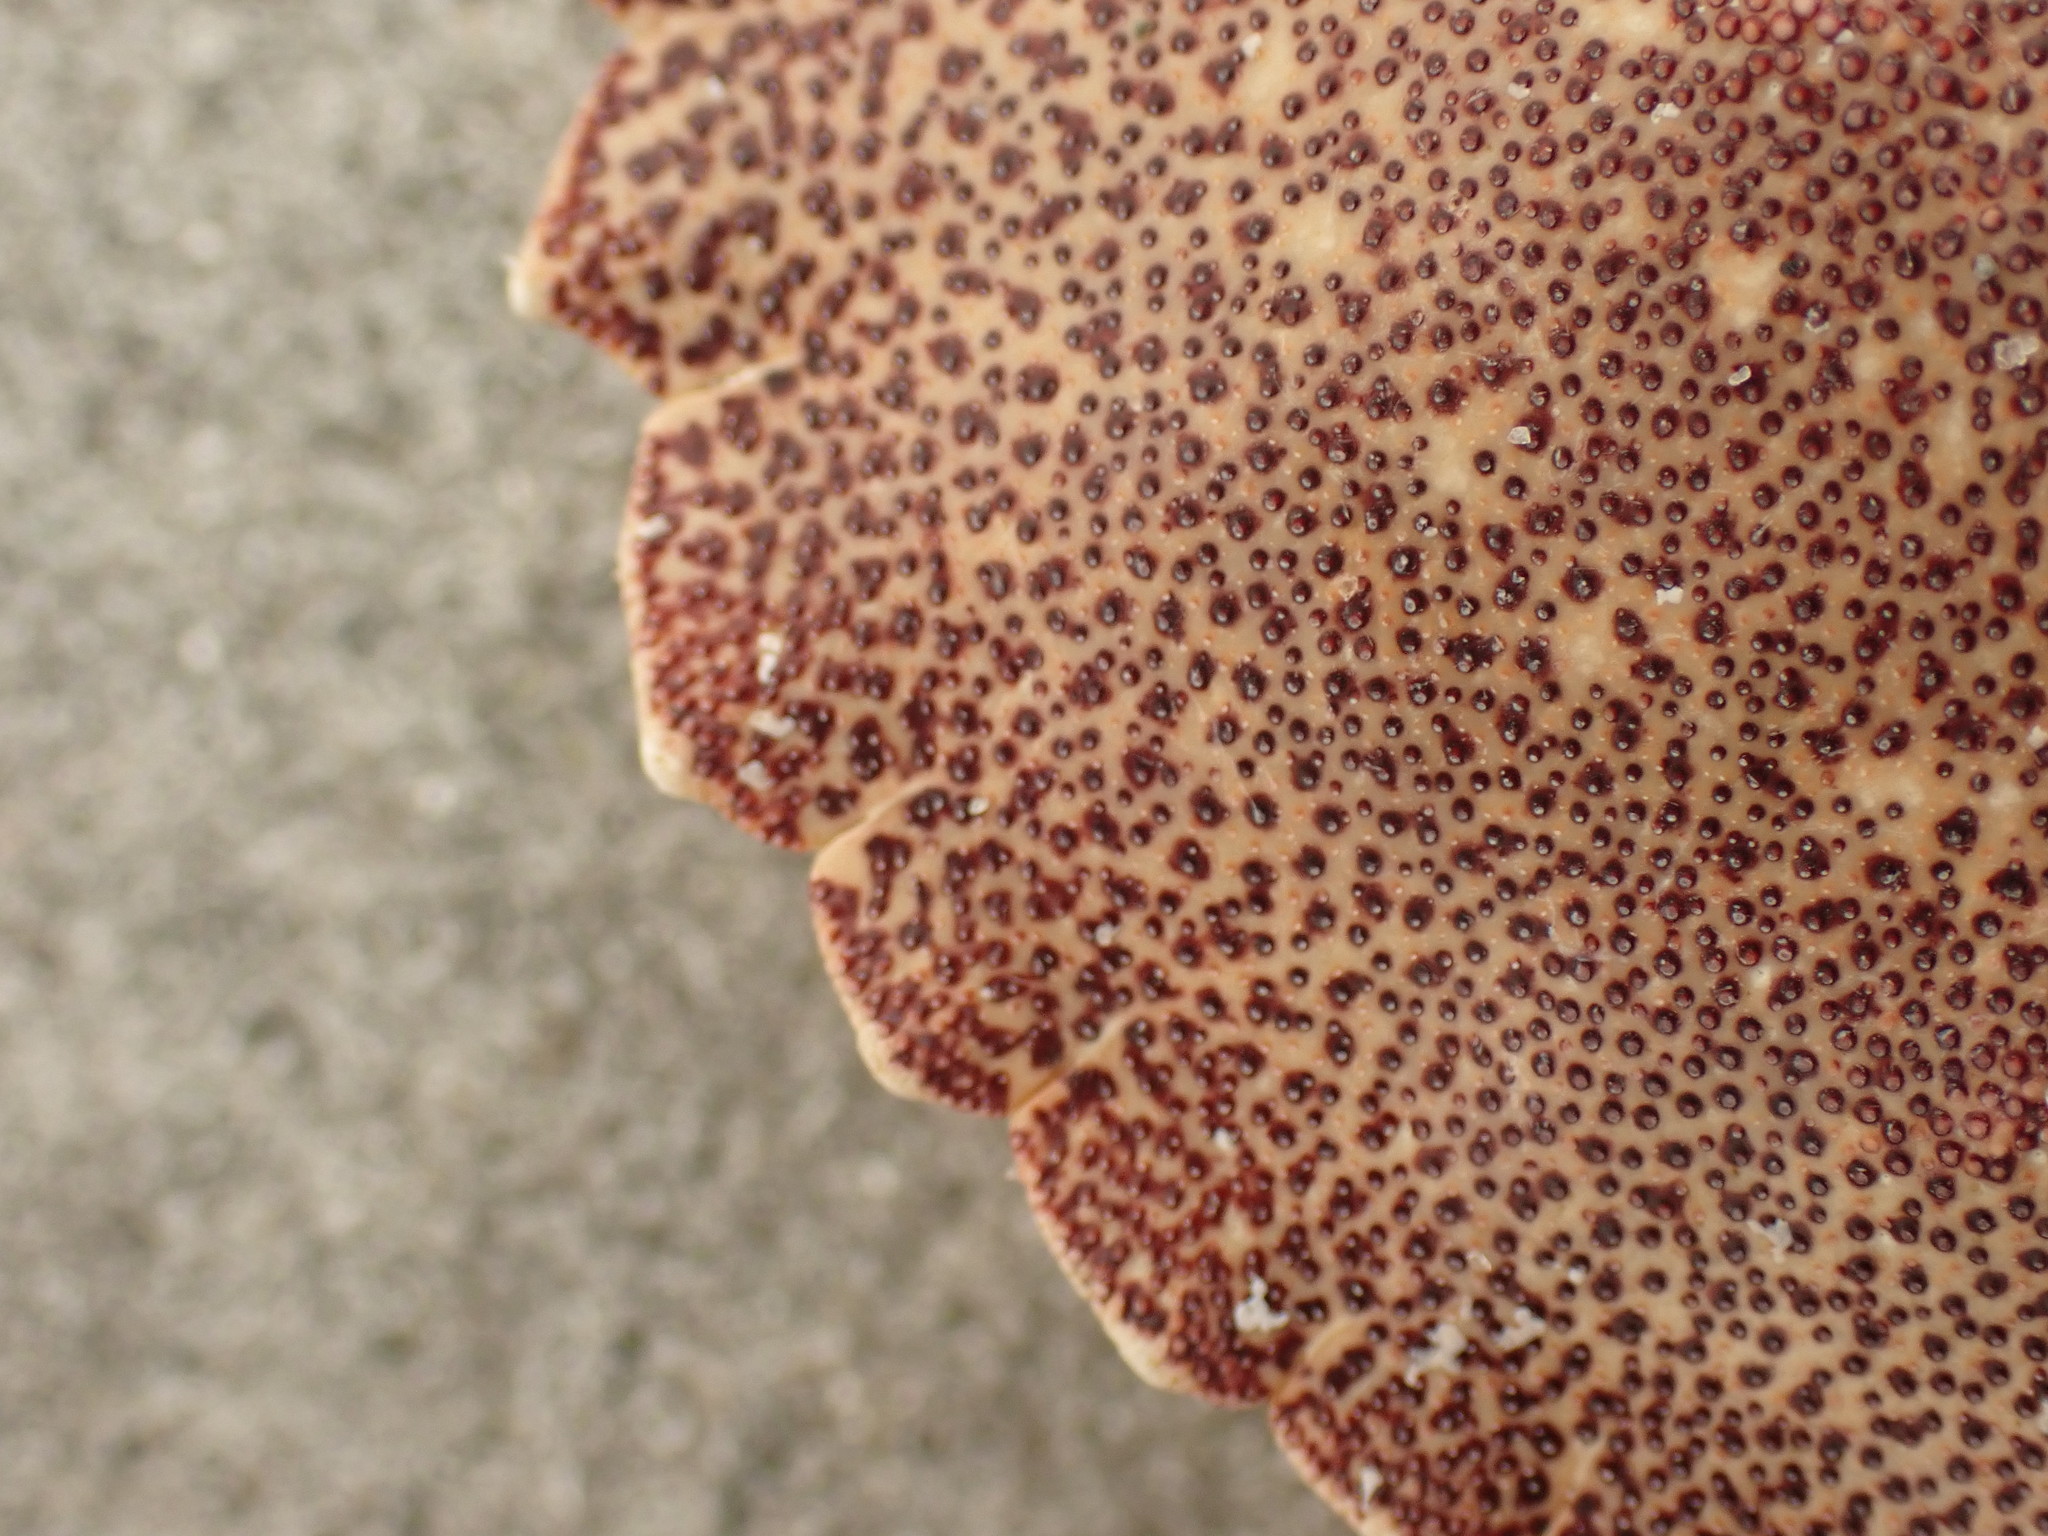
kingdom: Animalia
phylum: Arthropoda
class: Malacostraca
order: Decapoda
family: Cancridae
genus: Cancer
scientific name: Cancer irroratus
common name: Atlantic rock crab
